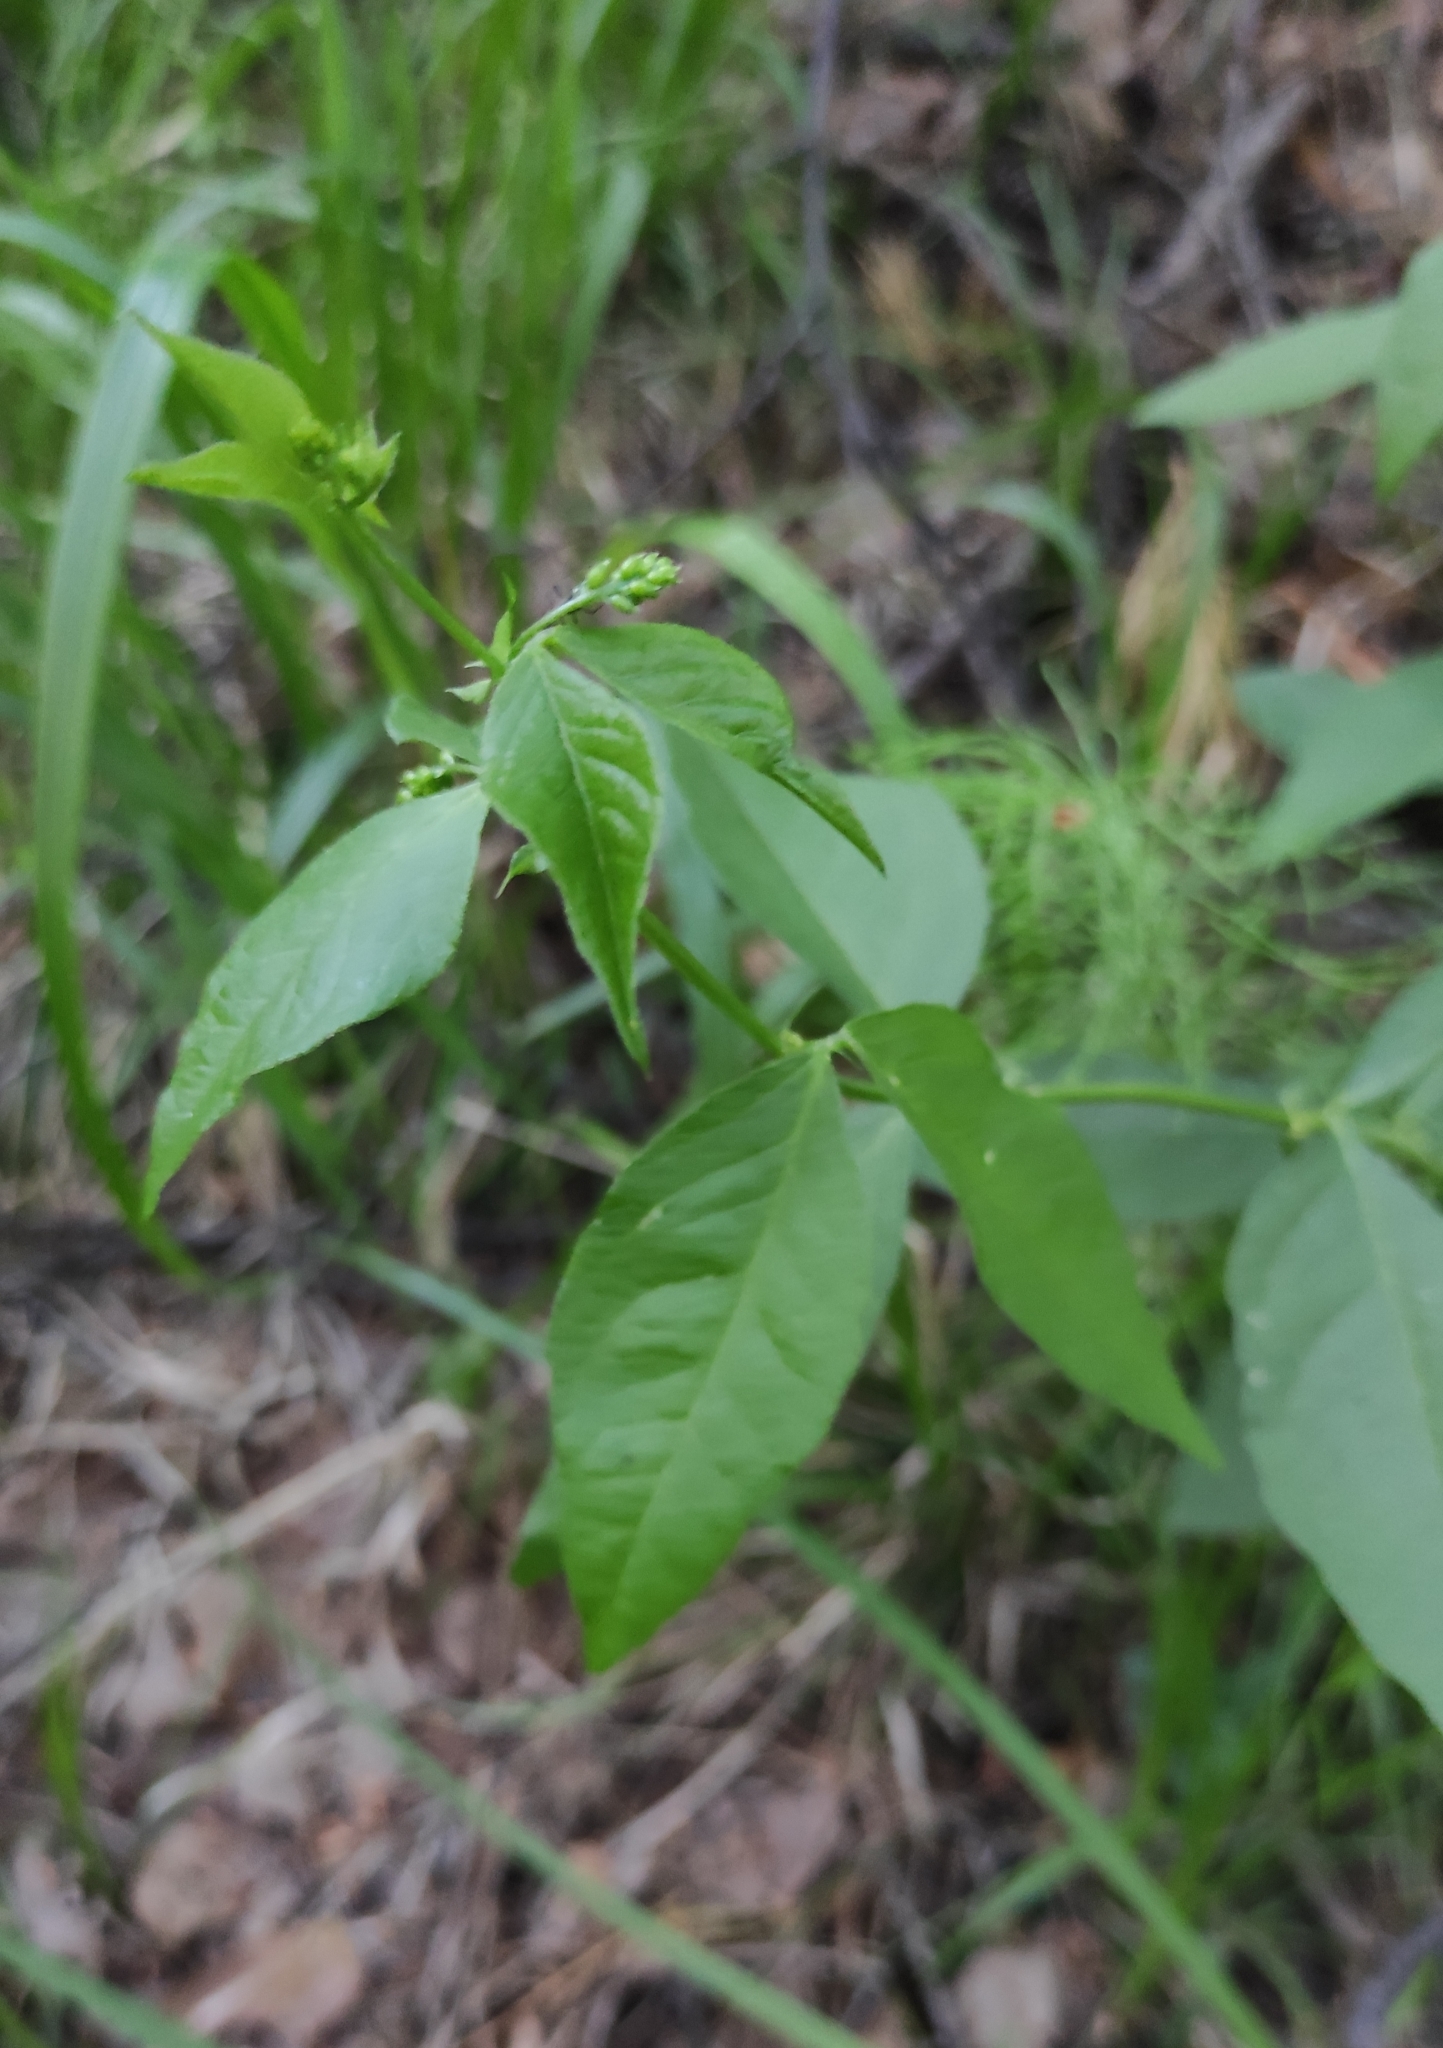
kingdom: Plantae
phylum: Tracheophyta
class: Magnoliopsida
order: Fabales
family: Fabaceae
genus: Vicia
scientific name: Vicia unijuga
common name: Two-leaf vetch
